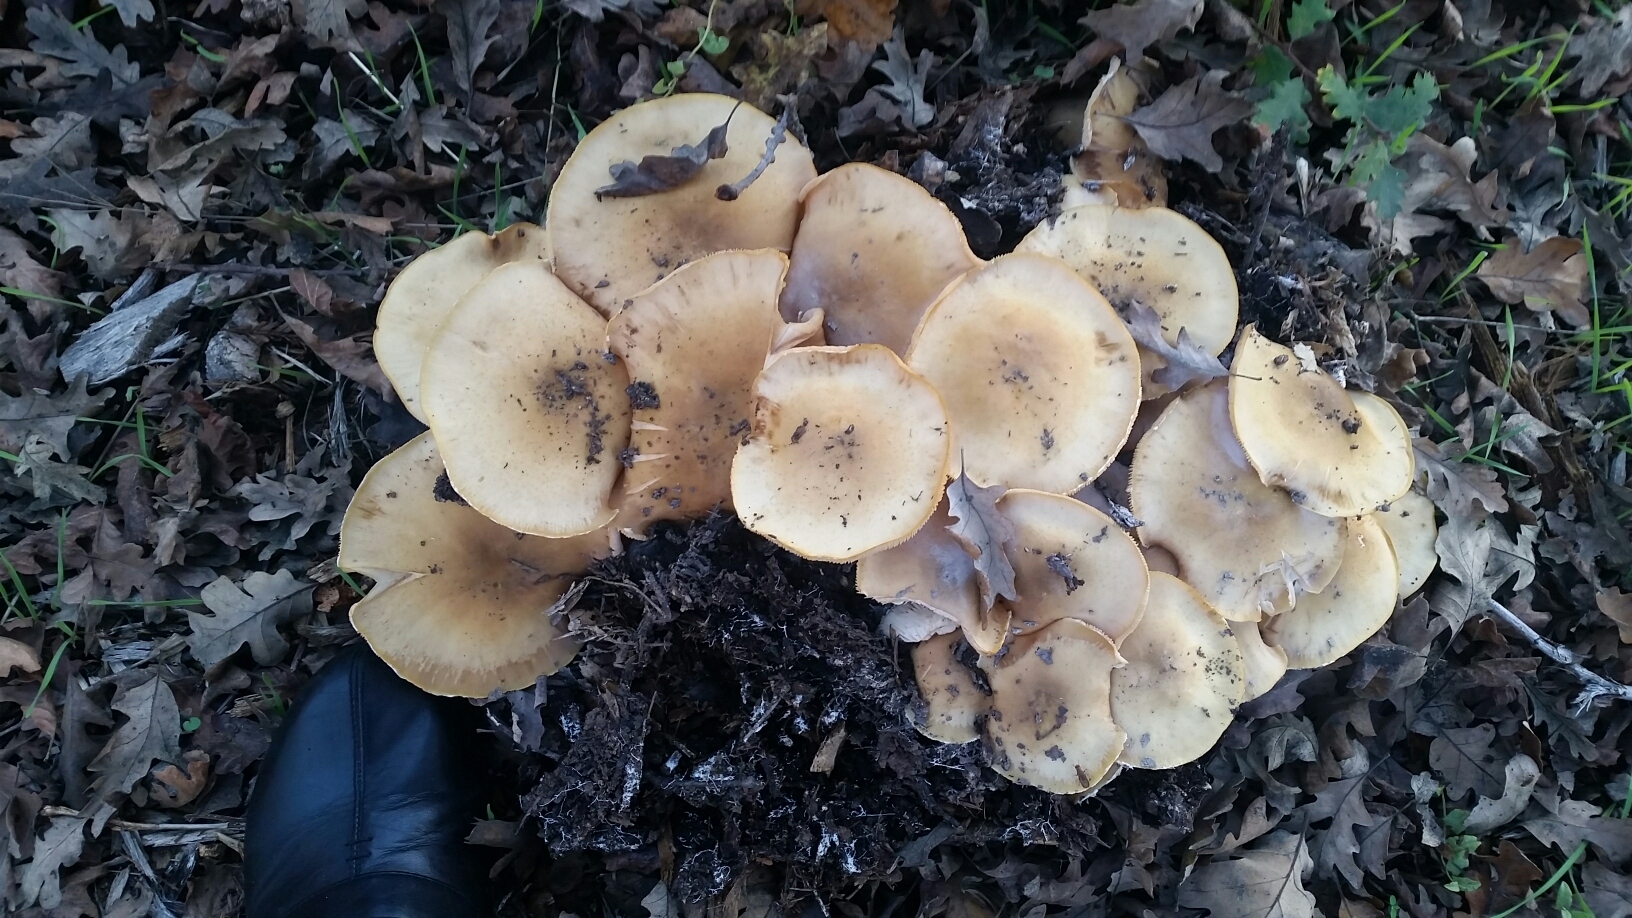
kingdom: Fungi
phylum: Basidiomycota
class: Agaricomycetes
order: Agaricales
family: Physalacriaceae
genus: Armillaria
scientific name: Armillaria mellea
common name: Honey fungus
